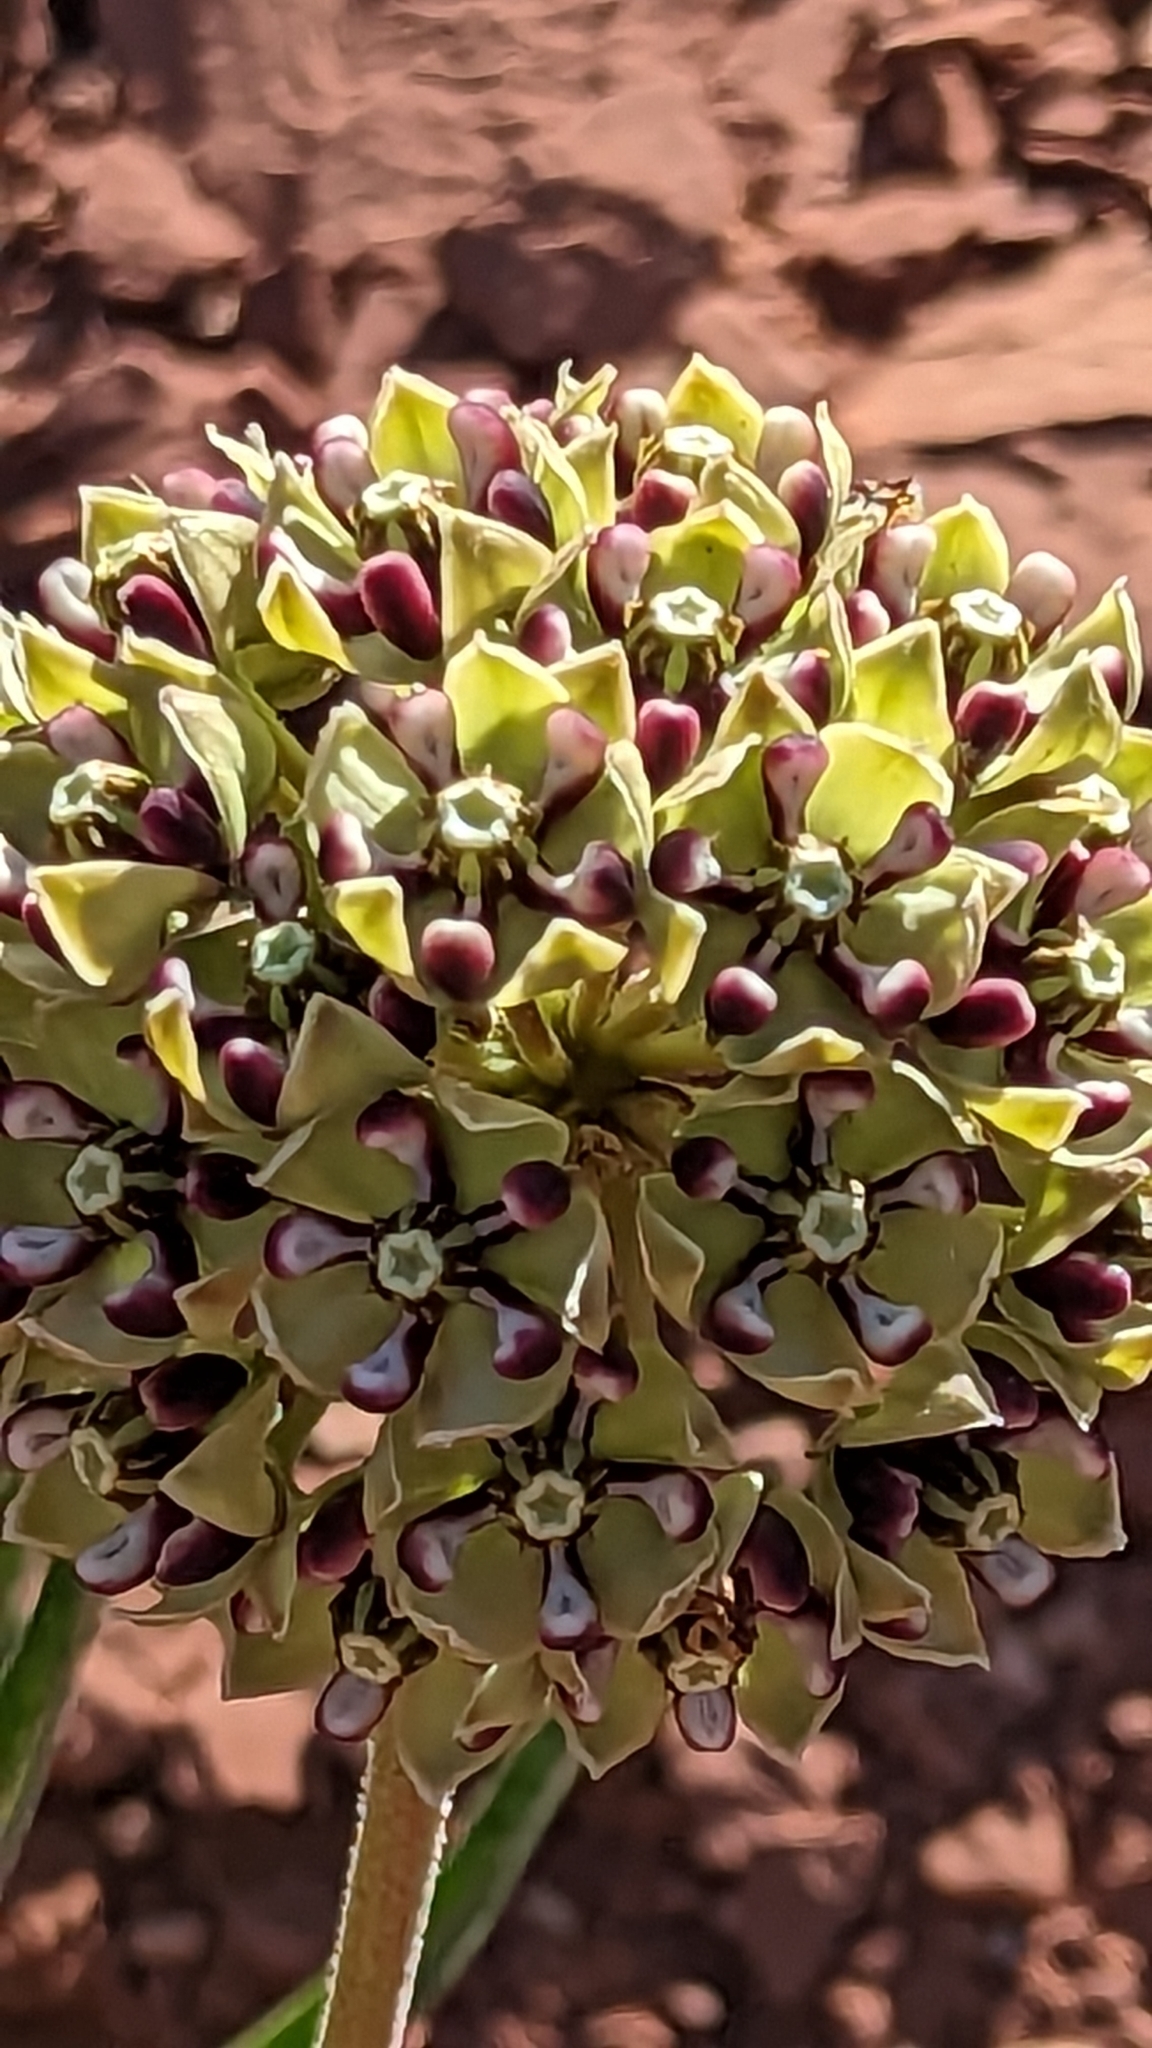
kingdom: Plantae
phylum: Tracheophyta
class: Magnoliopsida
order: Gentianales
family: Apocynaceae
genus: Asclepias
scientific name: Asclepias asperula
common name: Antelope horns
